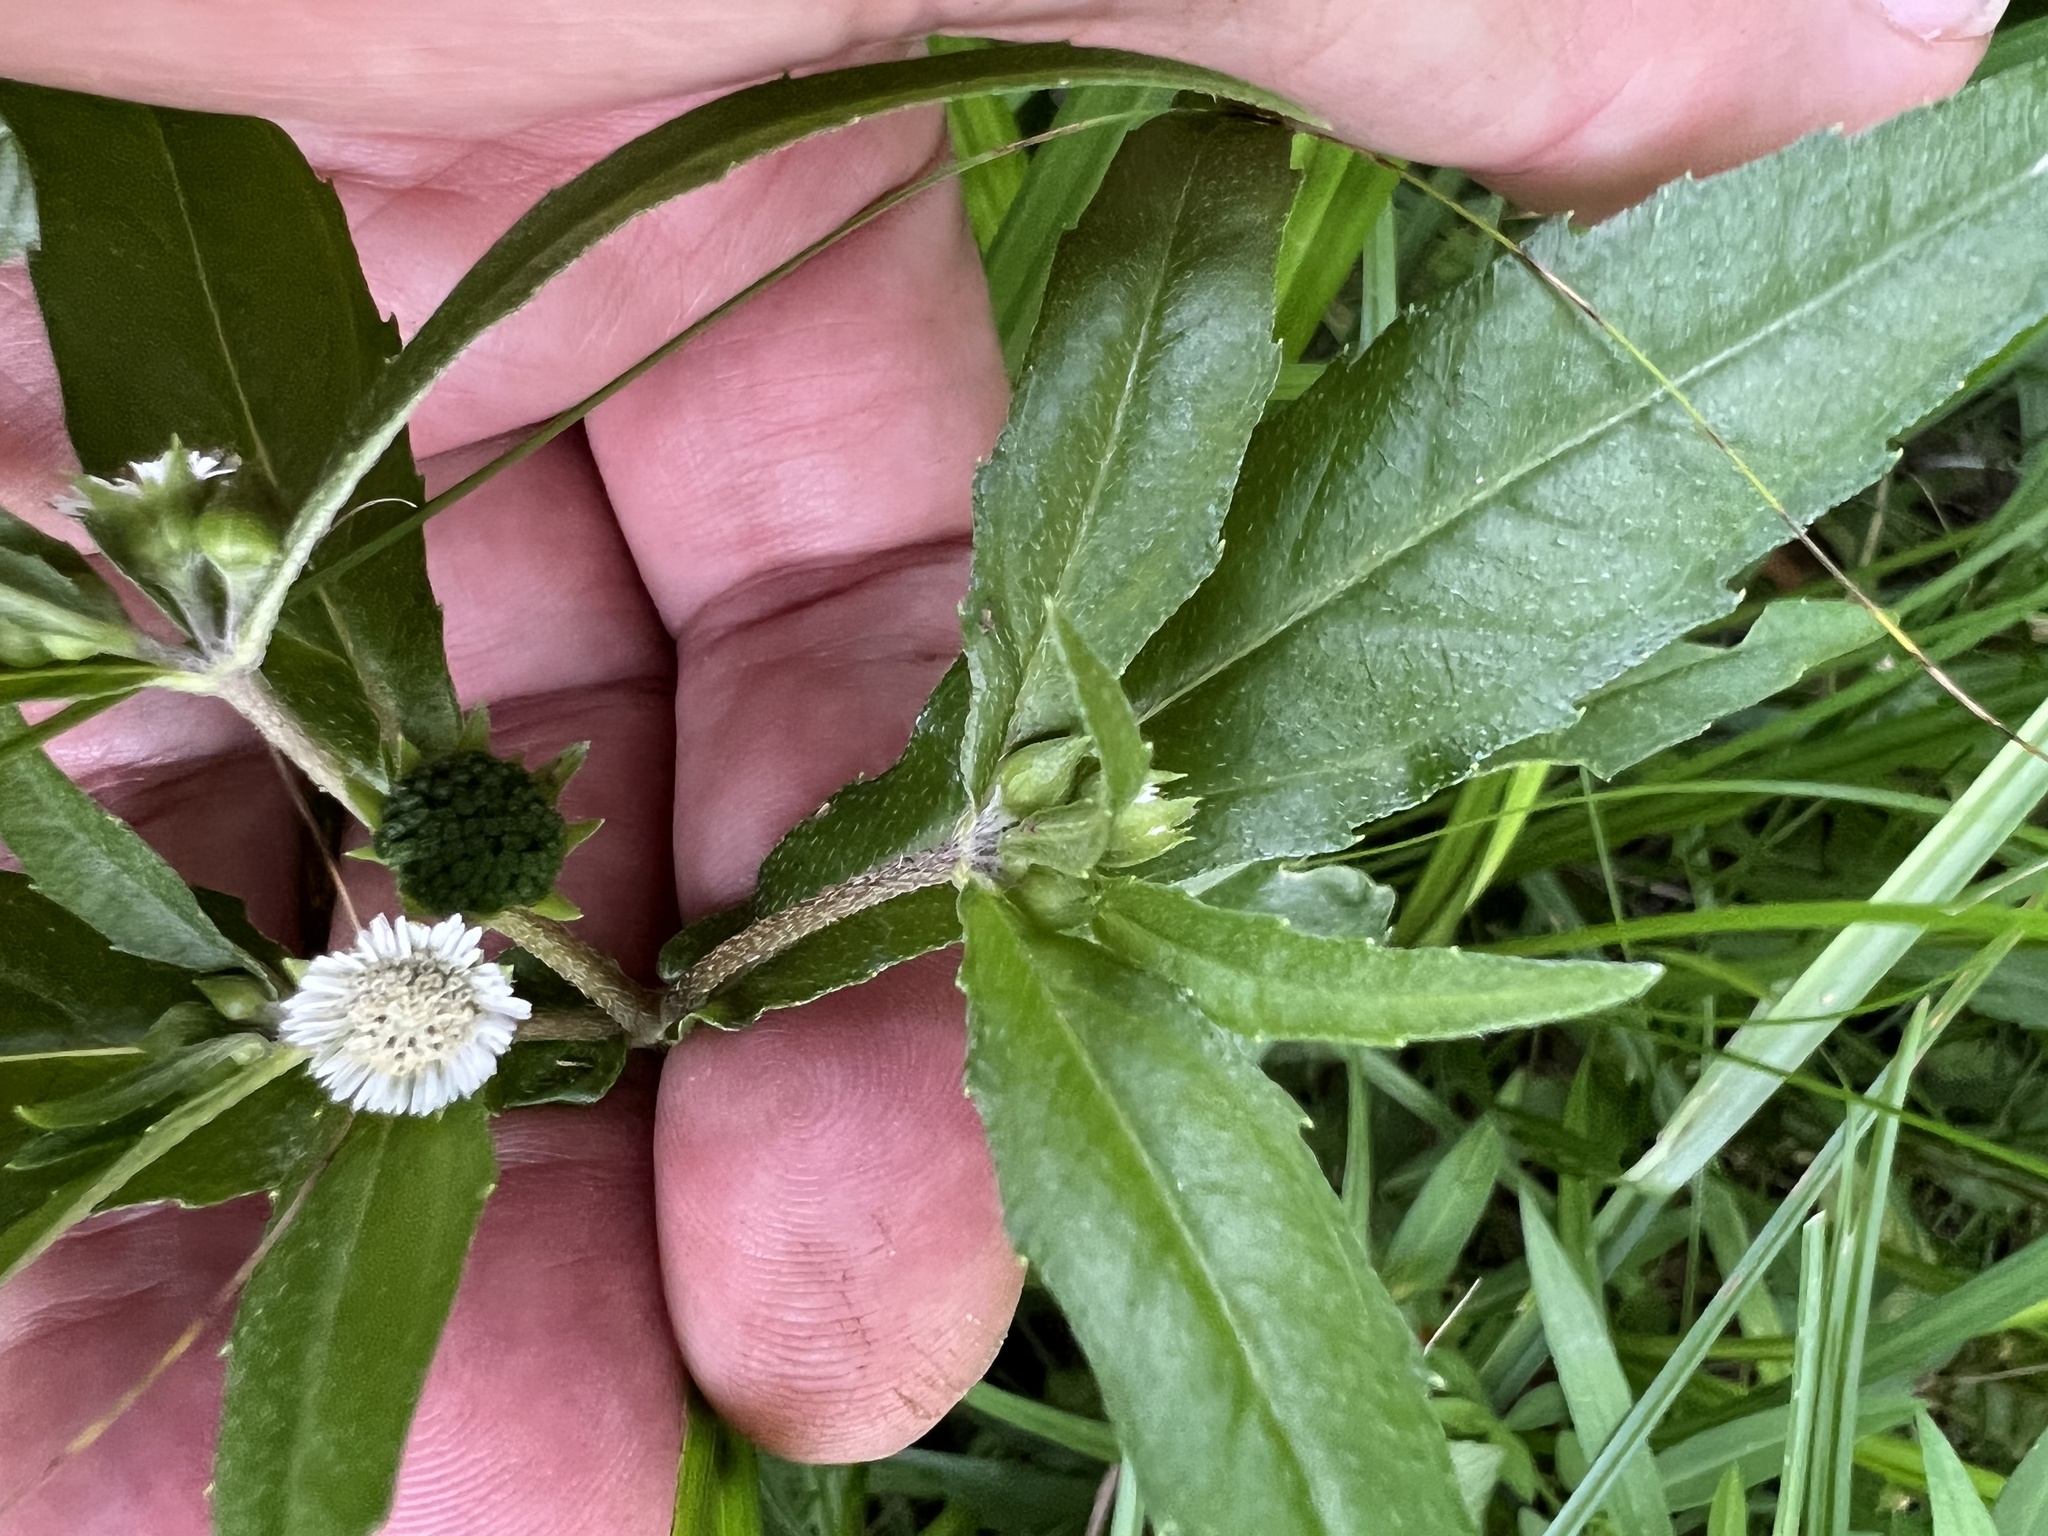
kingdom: Plantae
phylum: Tracheophyta
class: Magnoliopsida
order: Asterales
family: Asteraceae
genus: Eclipta
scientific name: Eclipta prostrata
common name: False daisy
